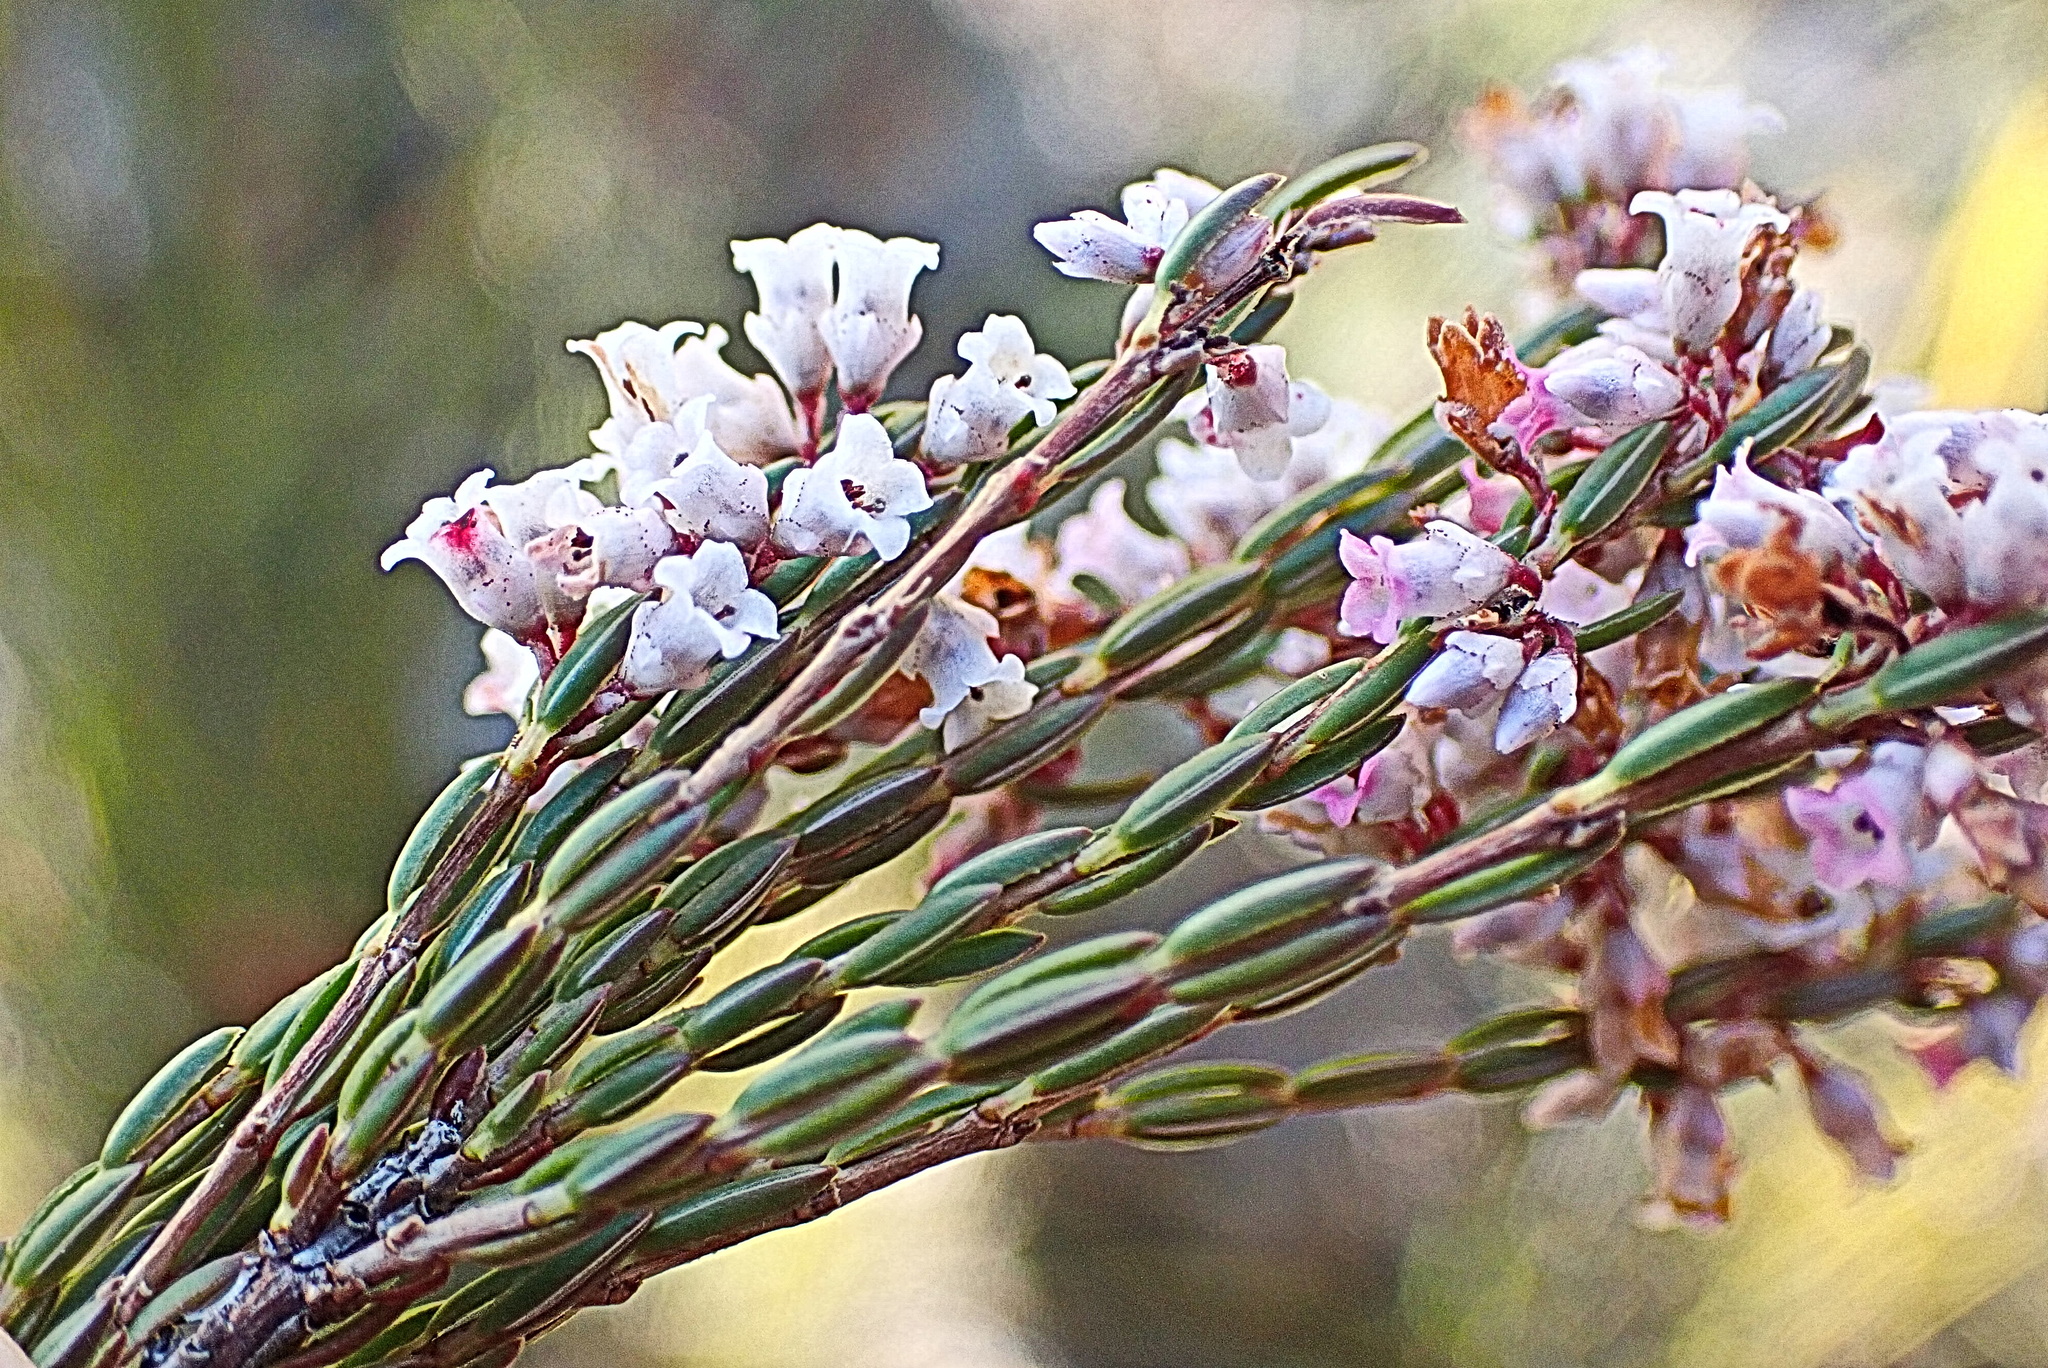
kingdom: Plantae
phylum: Tracheophyta
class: Magnoliopsida
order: Ericales
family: Ericaceae
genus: Erica
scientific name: Erica articularis
